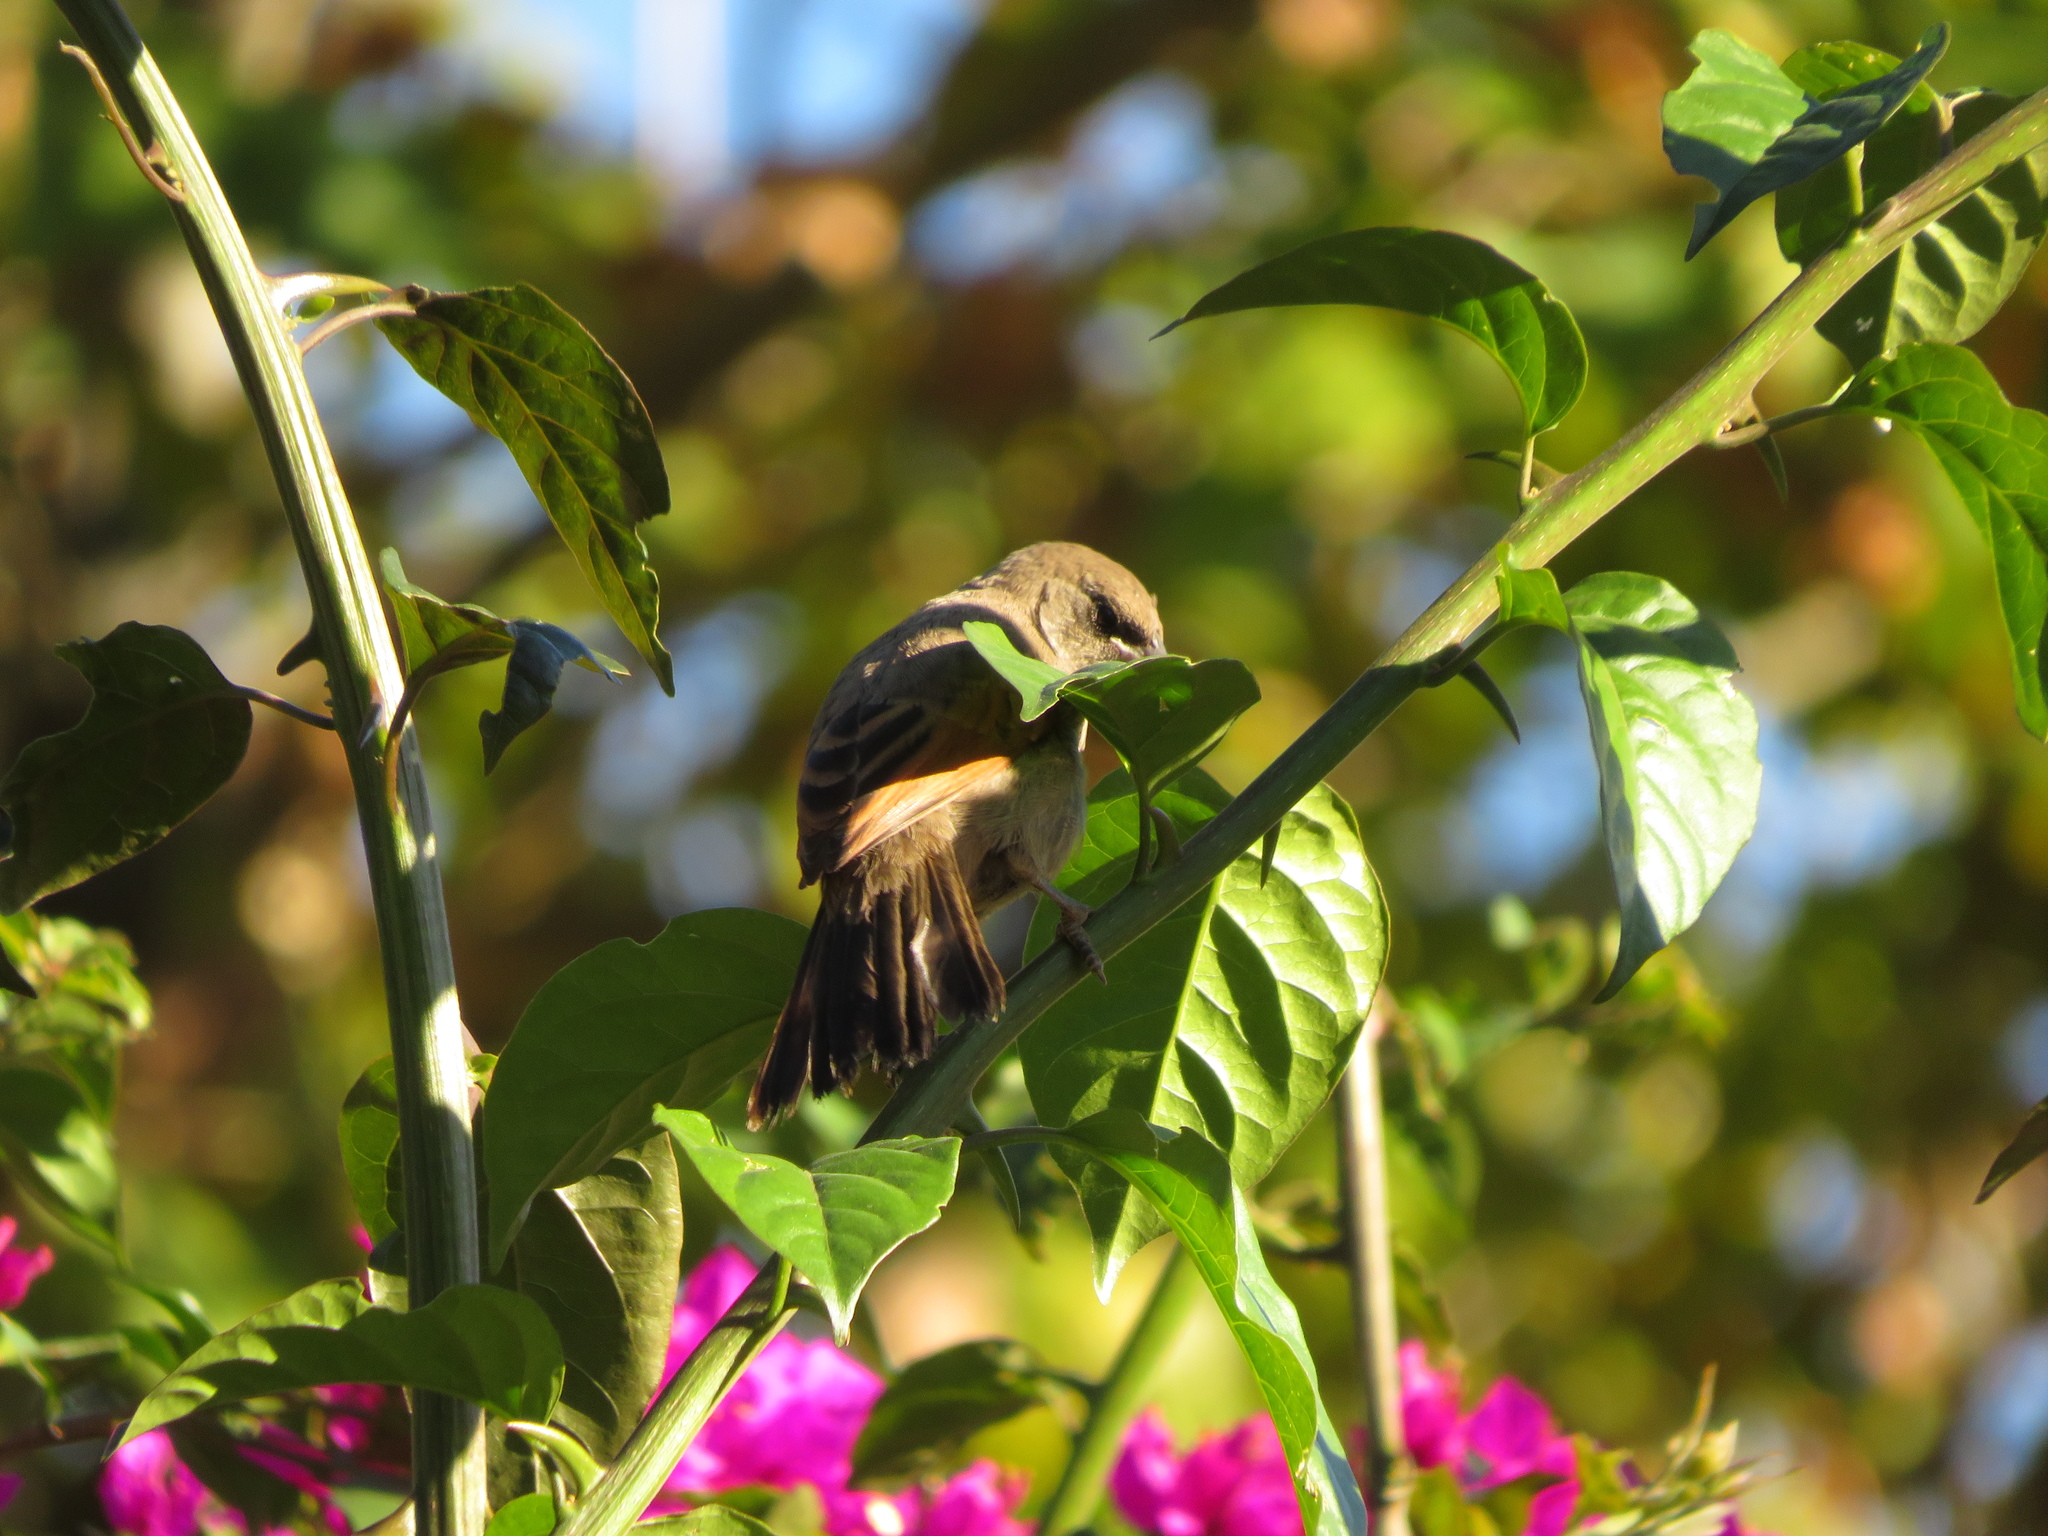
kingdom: Animalia
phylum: Chordata
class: Aves
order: Passeriformes
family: Icteridae
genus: Agelaioides
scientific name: Agelaioides badius
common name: Baywing
